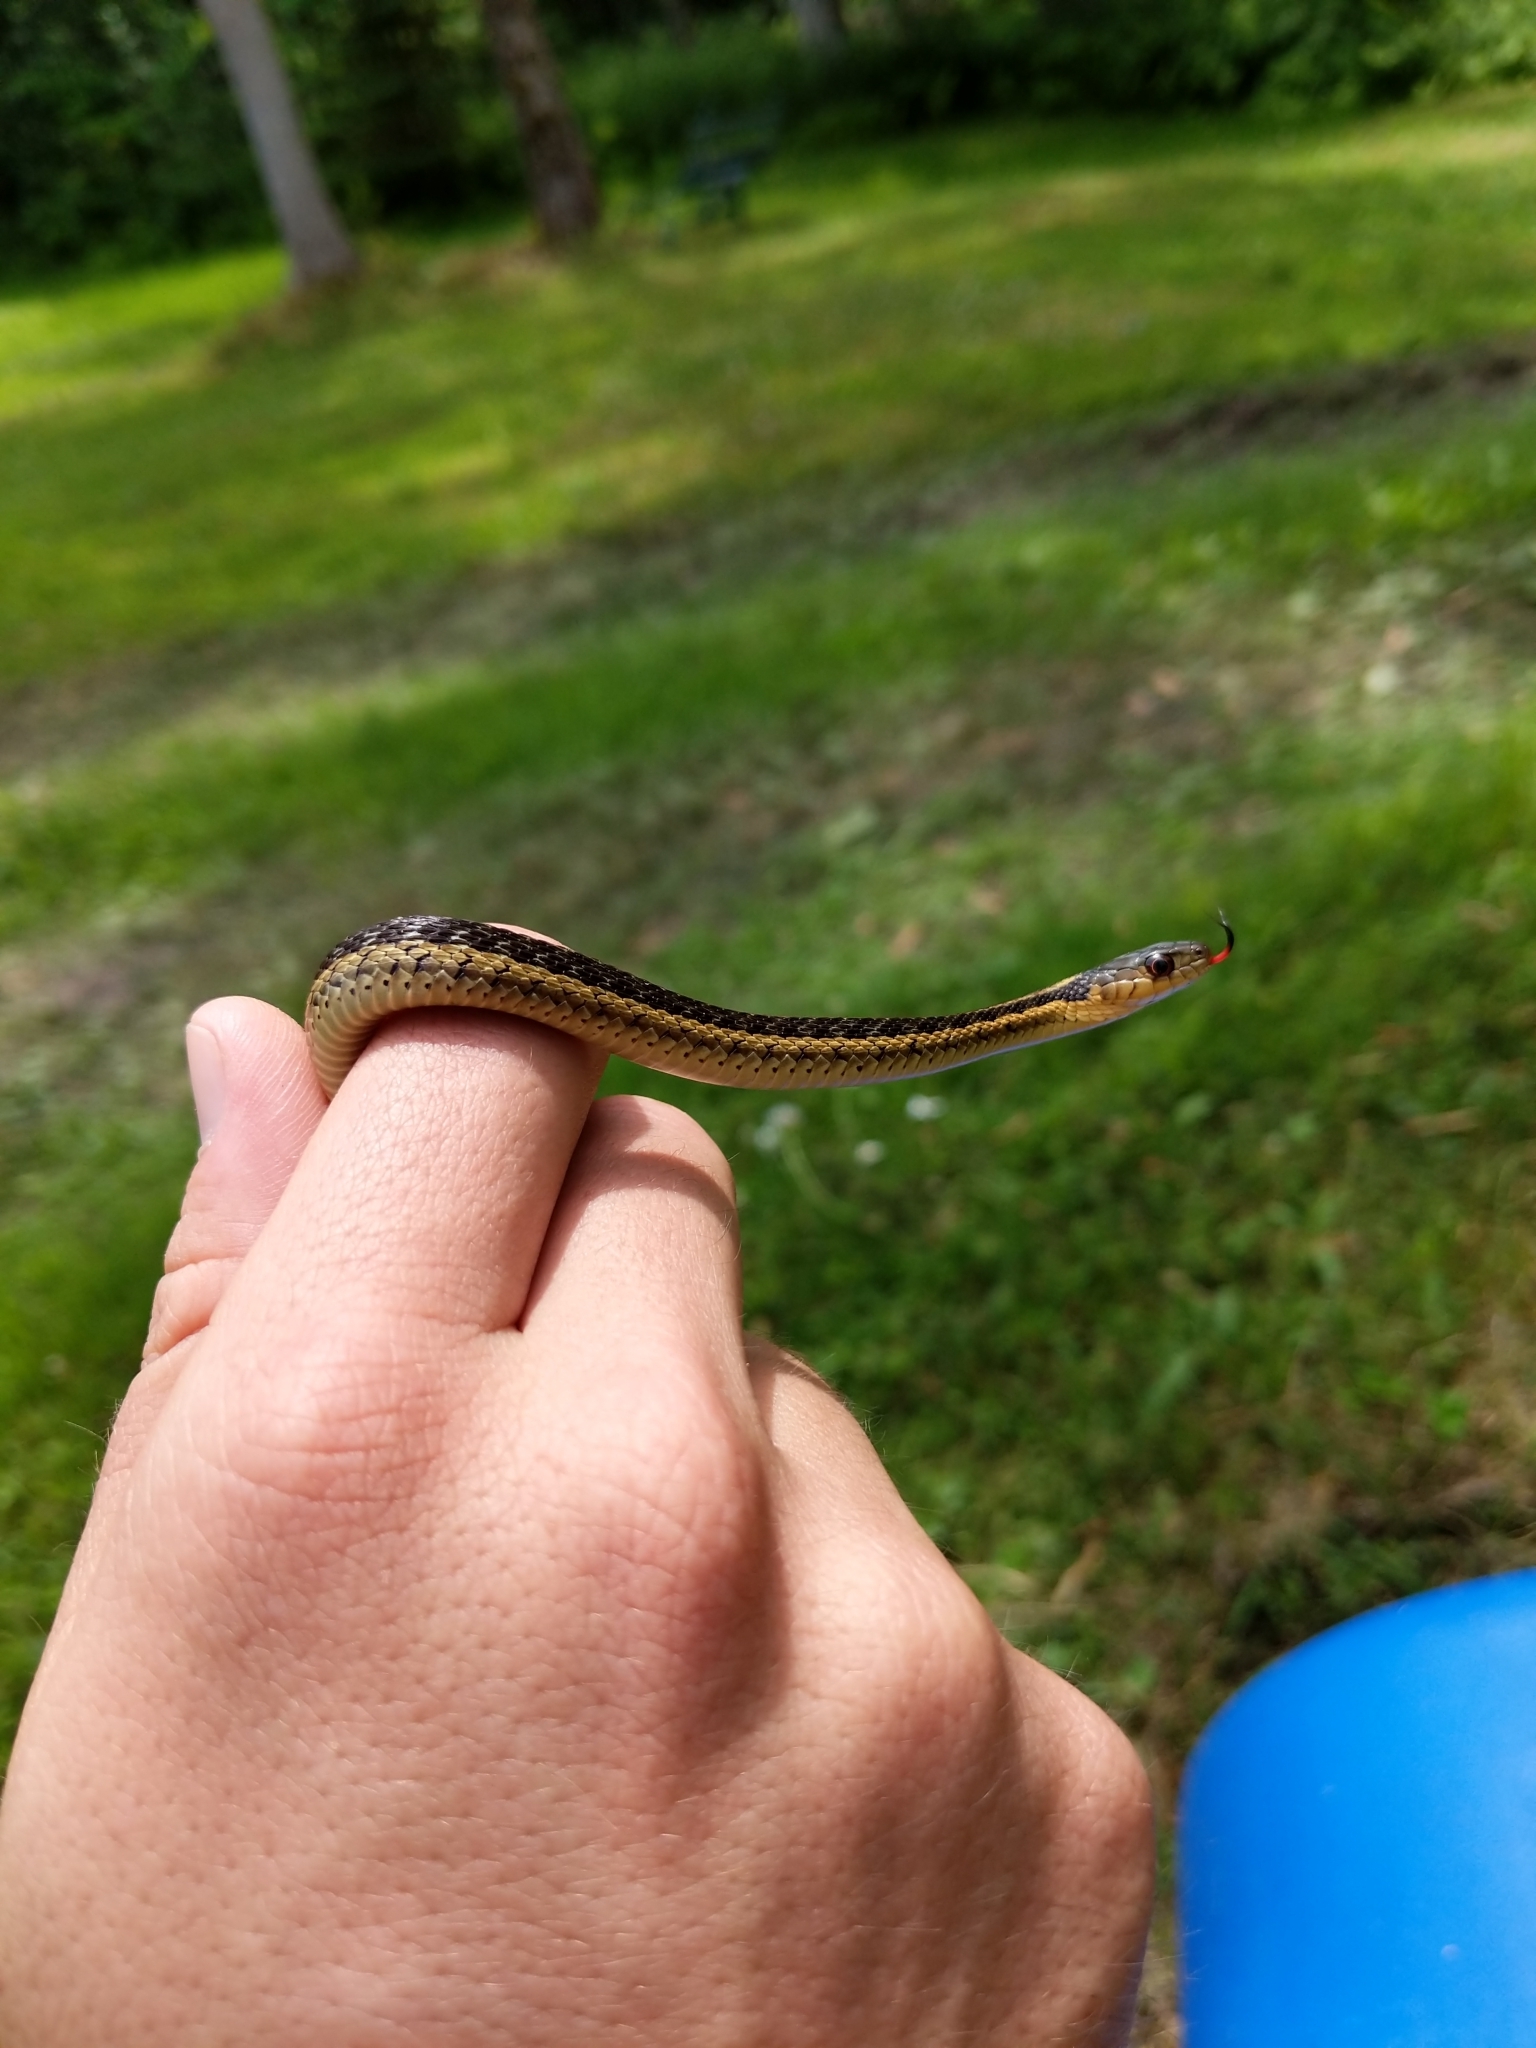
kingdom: Animalia
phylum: Chordata
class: Squamata
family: Colubridae
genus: Thamnophis
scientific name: Thamnophis sirtalis
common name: Common garter snake
